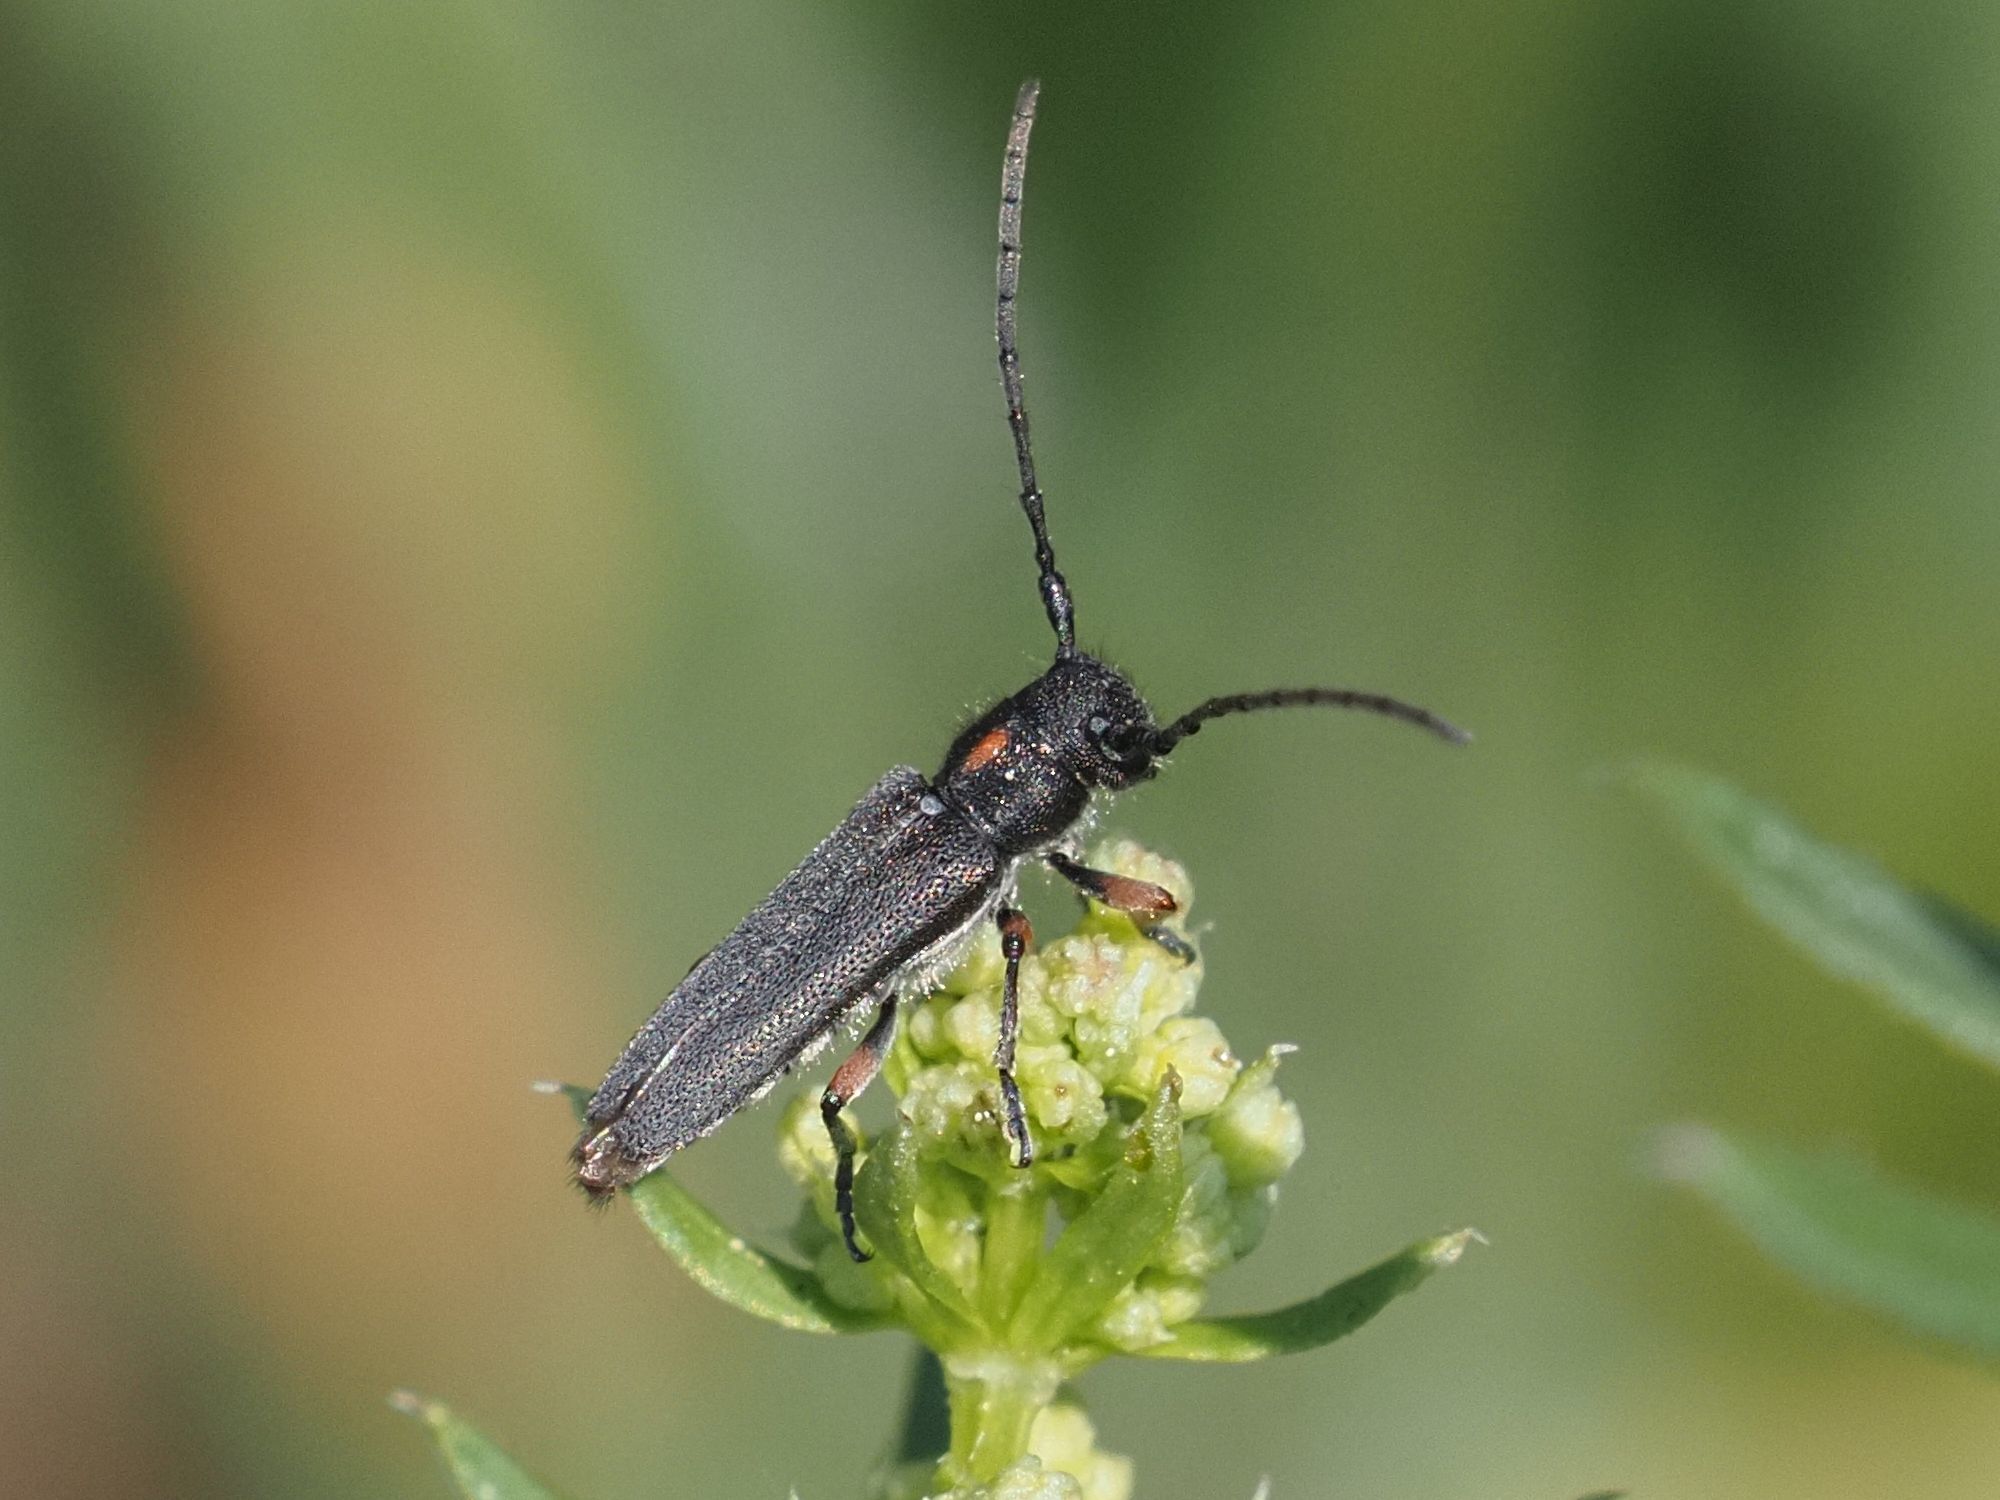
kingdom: Animalia
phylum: Arthropoda
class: Insecta
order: Coleoptera
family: Cerambycidae
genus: Phytoecia
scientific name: Phytoecia pustulata
